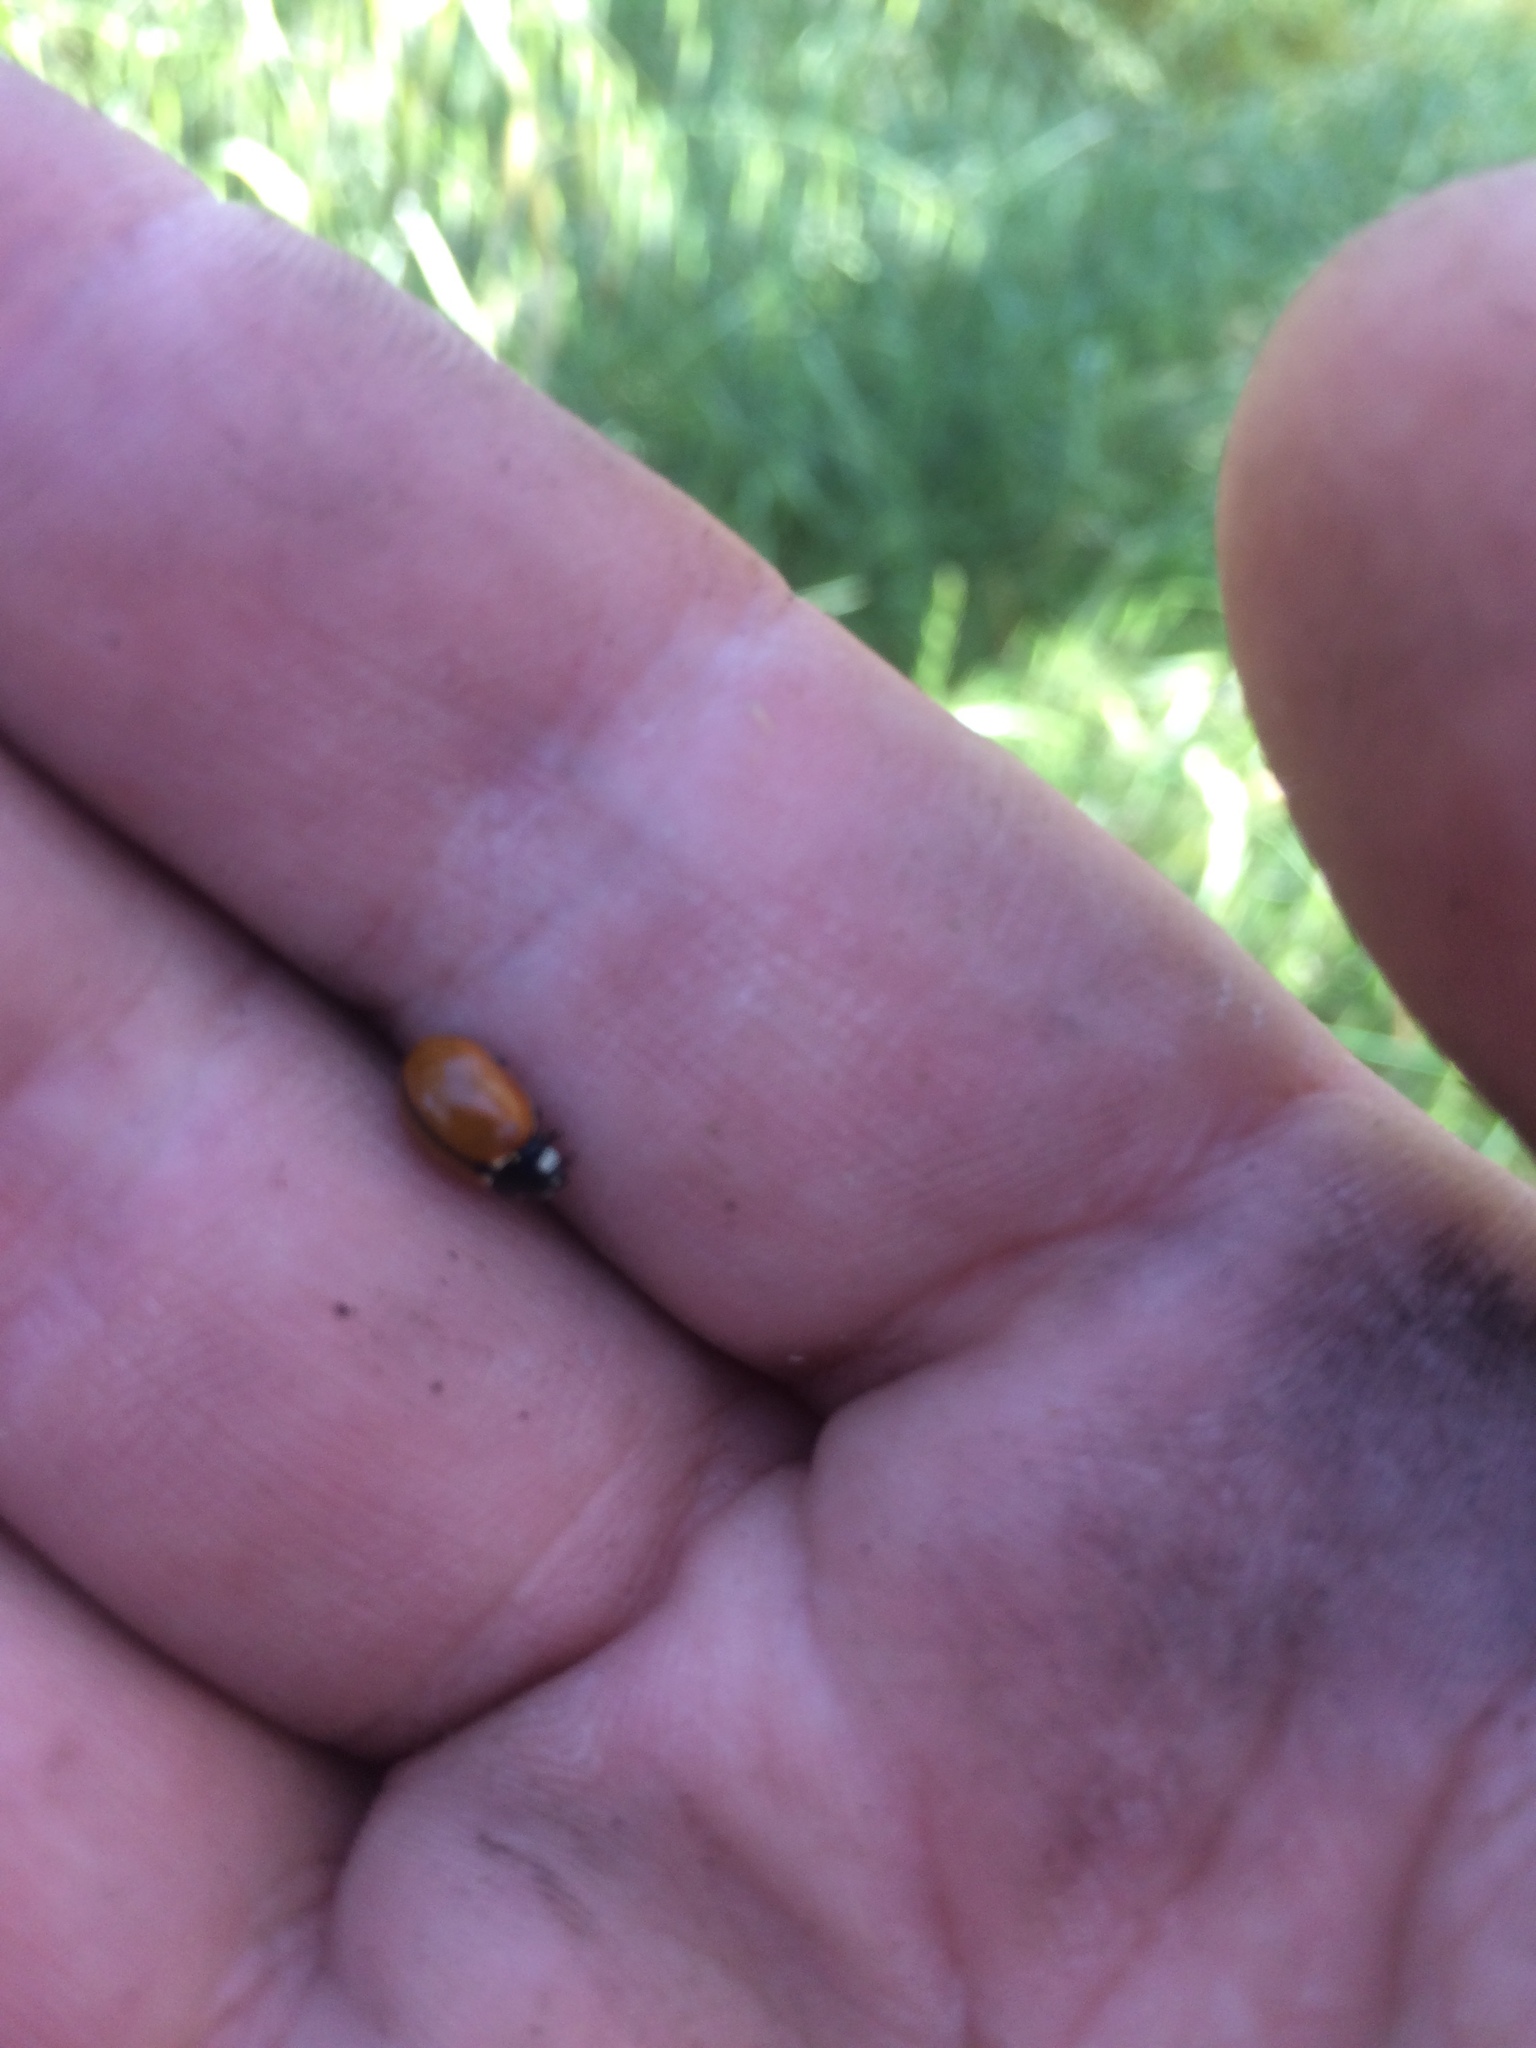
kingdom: Animalia
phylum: Arthropoda
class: Insecta
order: Coleoptera
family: Coccinellidae
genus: Coccinella
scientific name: Coccinella californica
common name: Lady beetle
